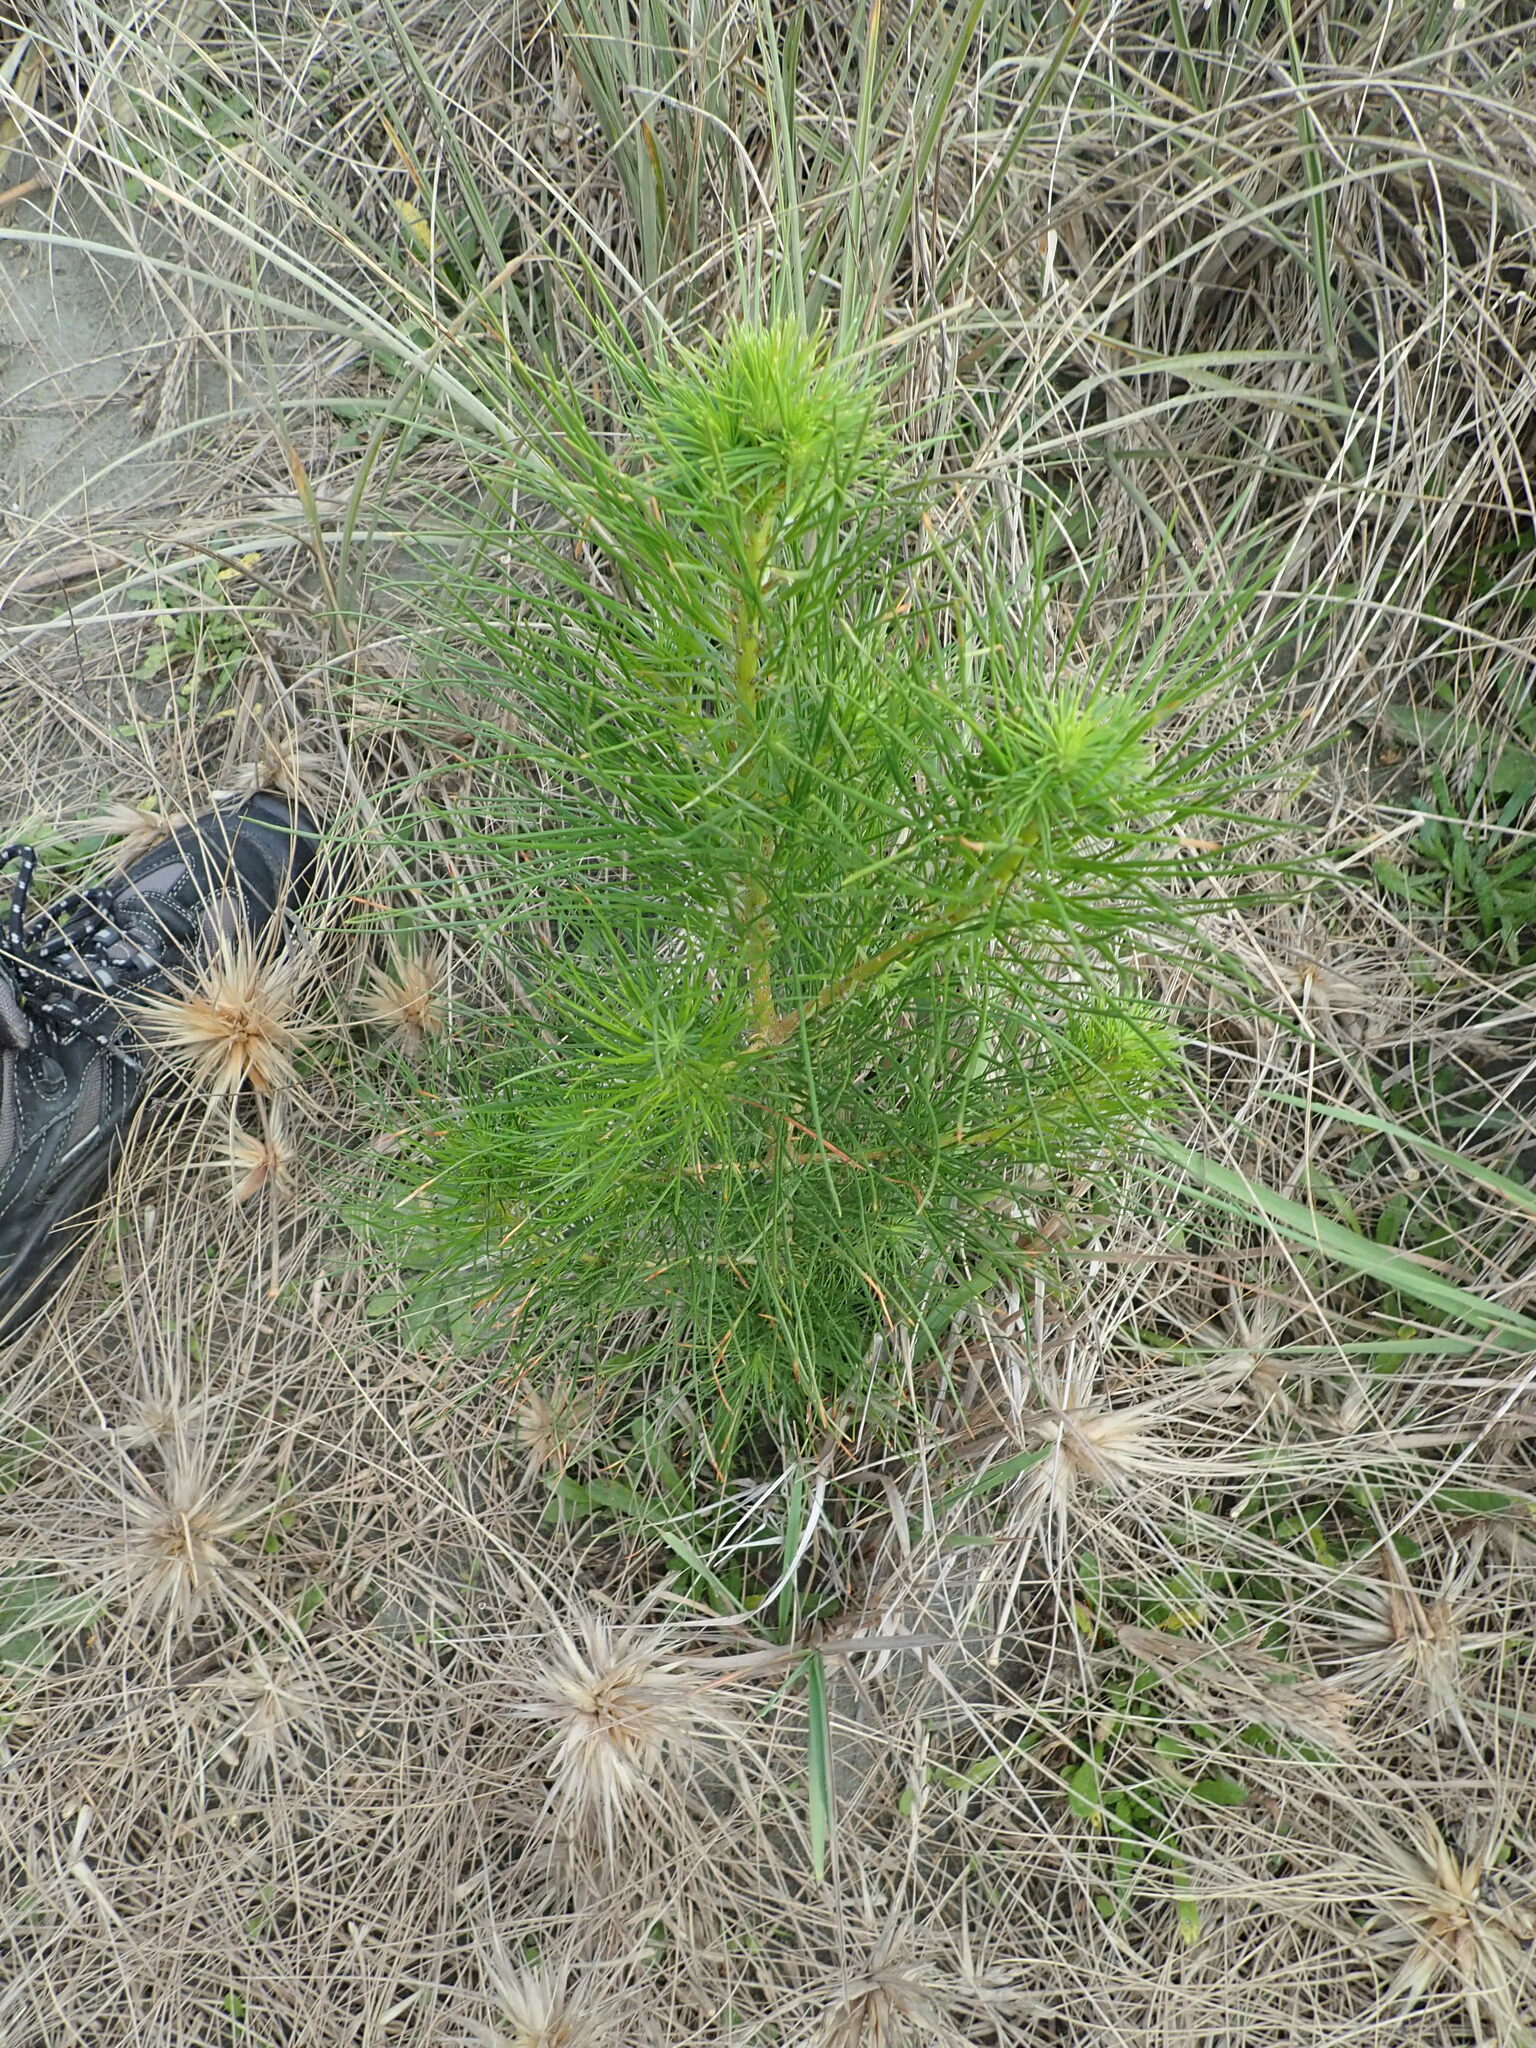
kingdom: Plantae
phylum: Tracheophyta
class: Pinopsida
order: Pinales
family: Pinaceae
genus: Pinus
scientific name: Pinus radiata
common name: Monterey pine
